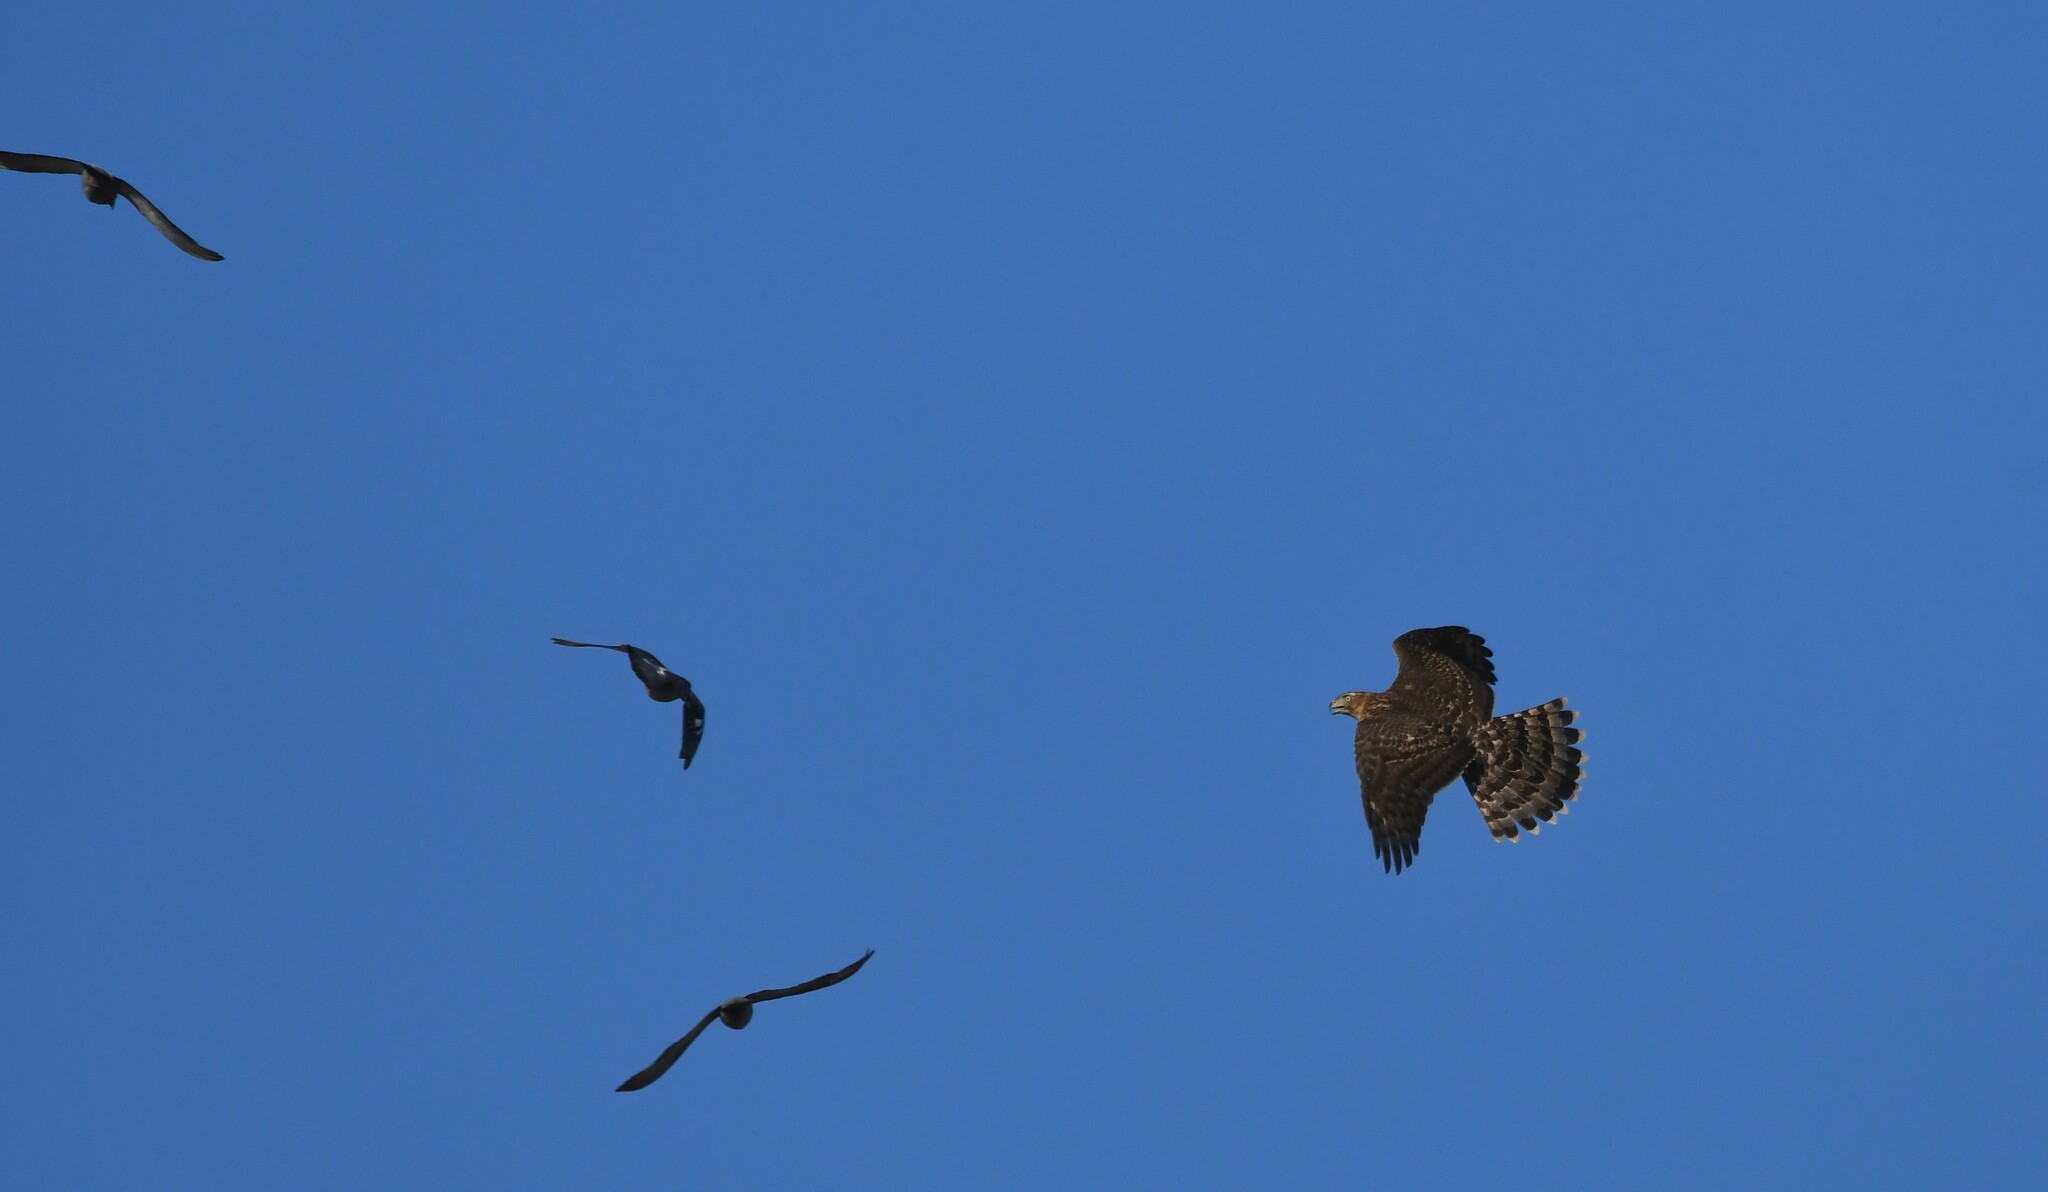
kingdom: Animalia
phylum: Chordata
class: Aves
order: Accipitriformes
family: Accipitridae
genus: Accipiter
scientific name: Accipiter gentilis
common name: Northern goshawk
